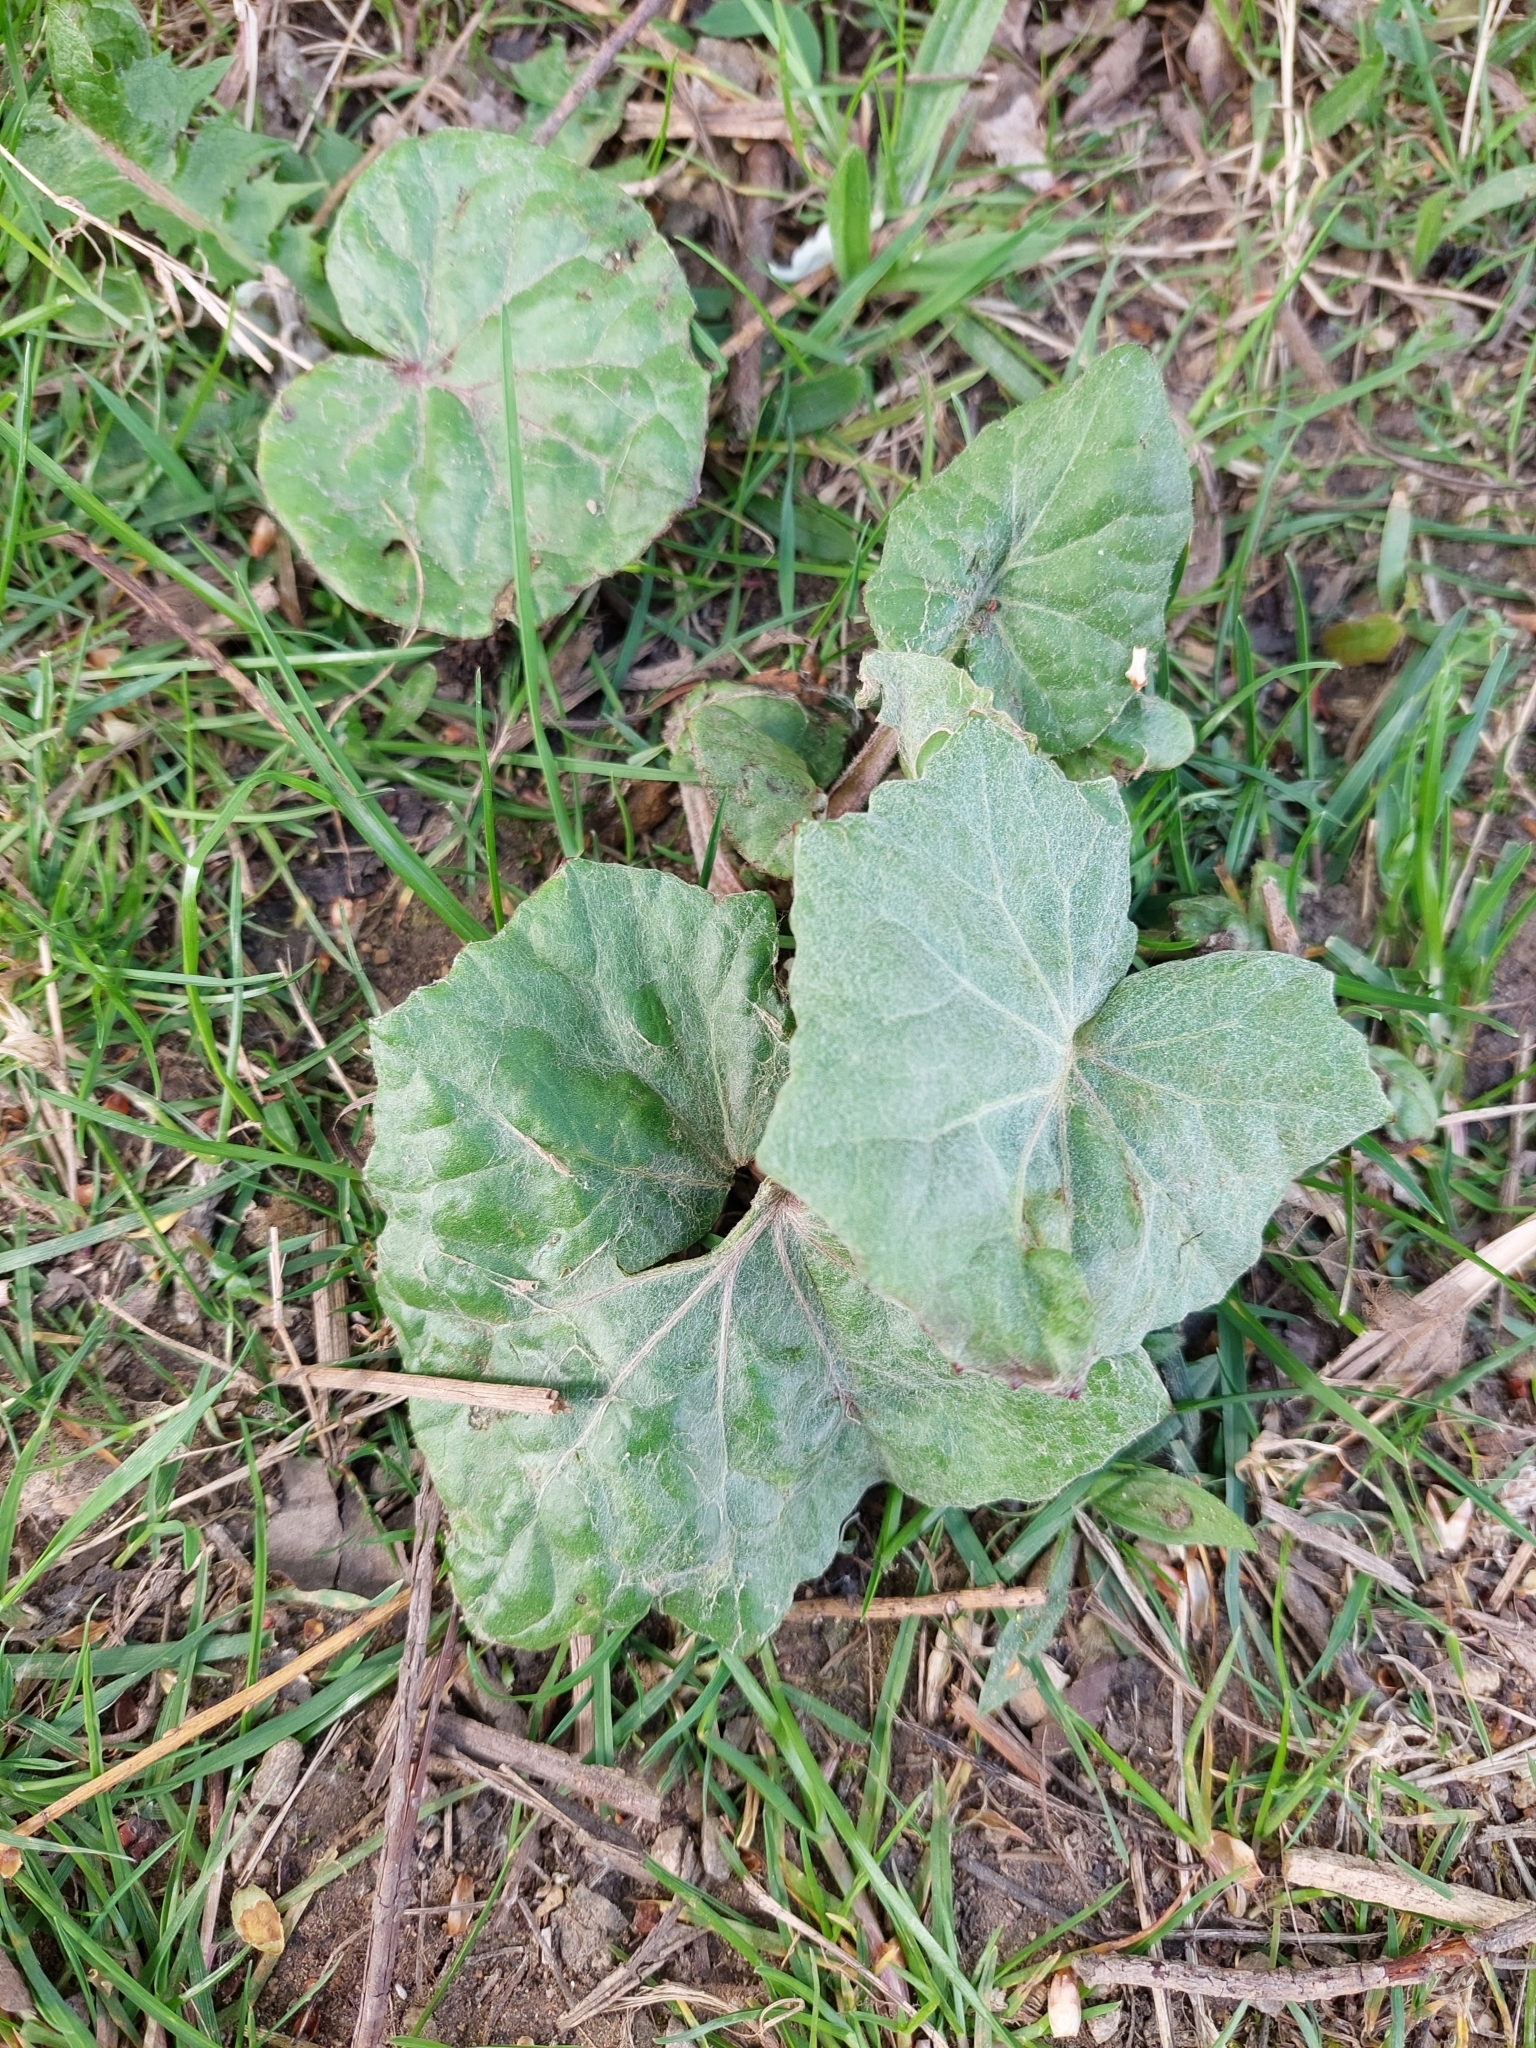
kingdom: Plantae
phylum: Tracheophyta
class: Magnoliopsida
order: Asterales
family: Asteraceae
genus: Tussilago
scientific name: Tussilago farfara
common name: Coltsfoot
